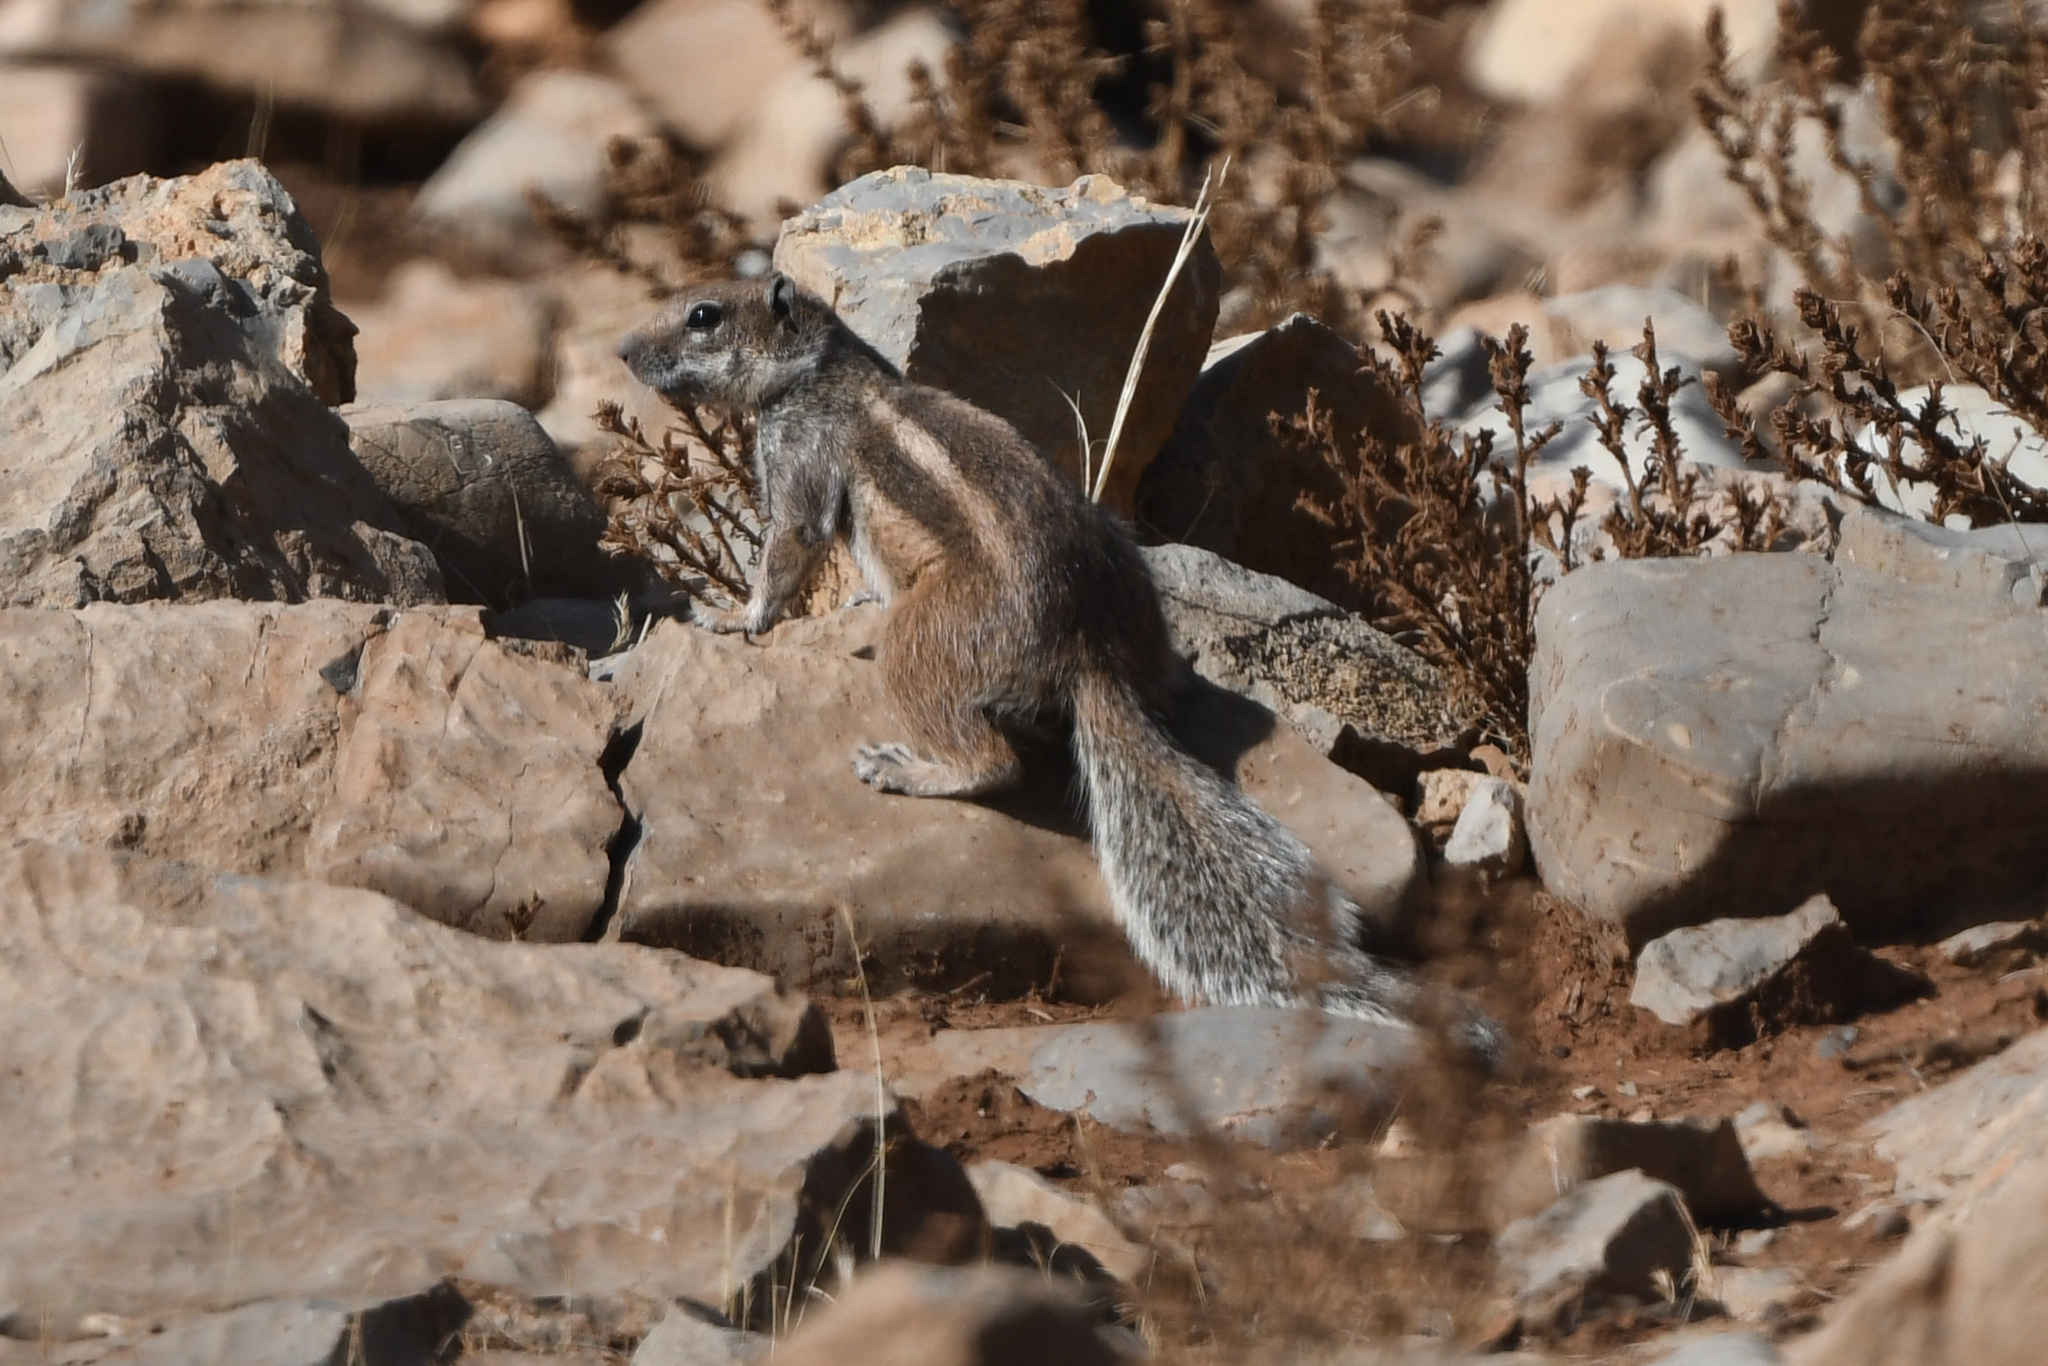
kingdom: Animalia
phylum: Chordata
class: Mammalia
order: Rodentia
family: Sciuridae
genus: Atlantoxerus
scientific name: Atlantoxerus getulus
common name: Barbary ground squirrel
